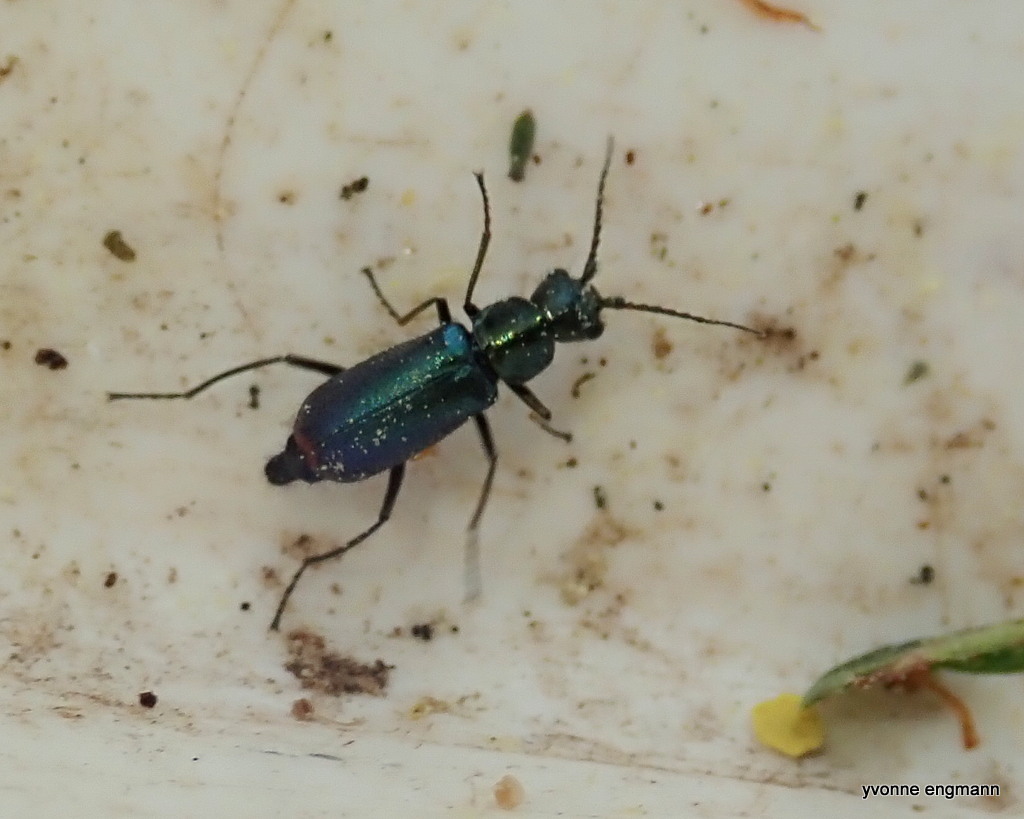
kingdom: Animalia
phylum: Arthropoda
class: Insecta
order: Coleoptera
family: Malachiidae
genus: Cordylepherus
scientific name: Cordylepherus viridis
